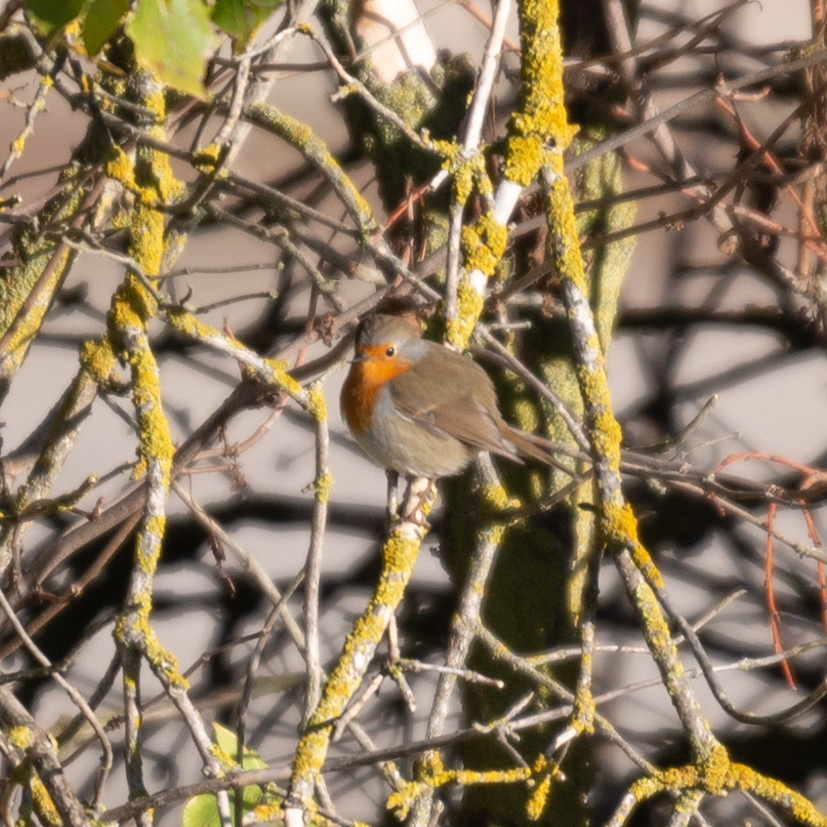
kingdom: Animalia
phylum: Chordata
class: Aves
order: Passeriformes
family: Muscicapidae
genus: Erithacus
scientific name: Erithacus rubecula
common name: European robin
